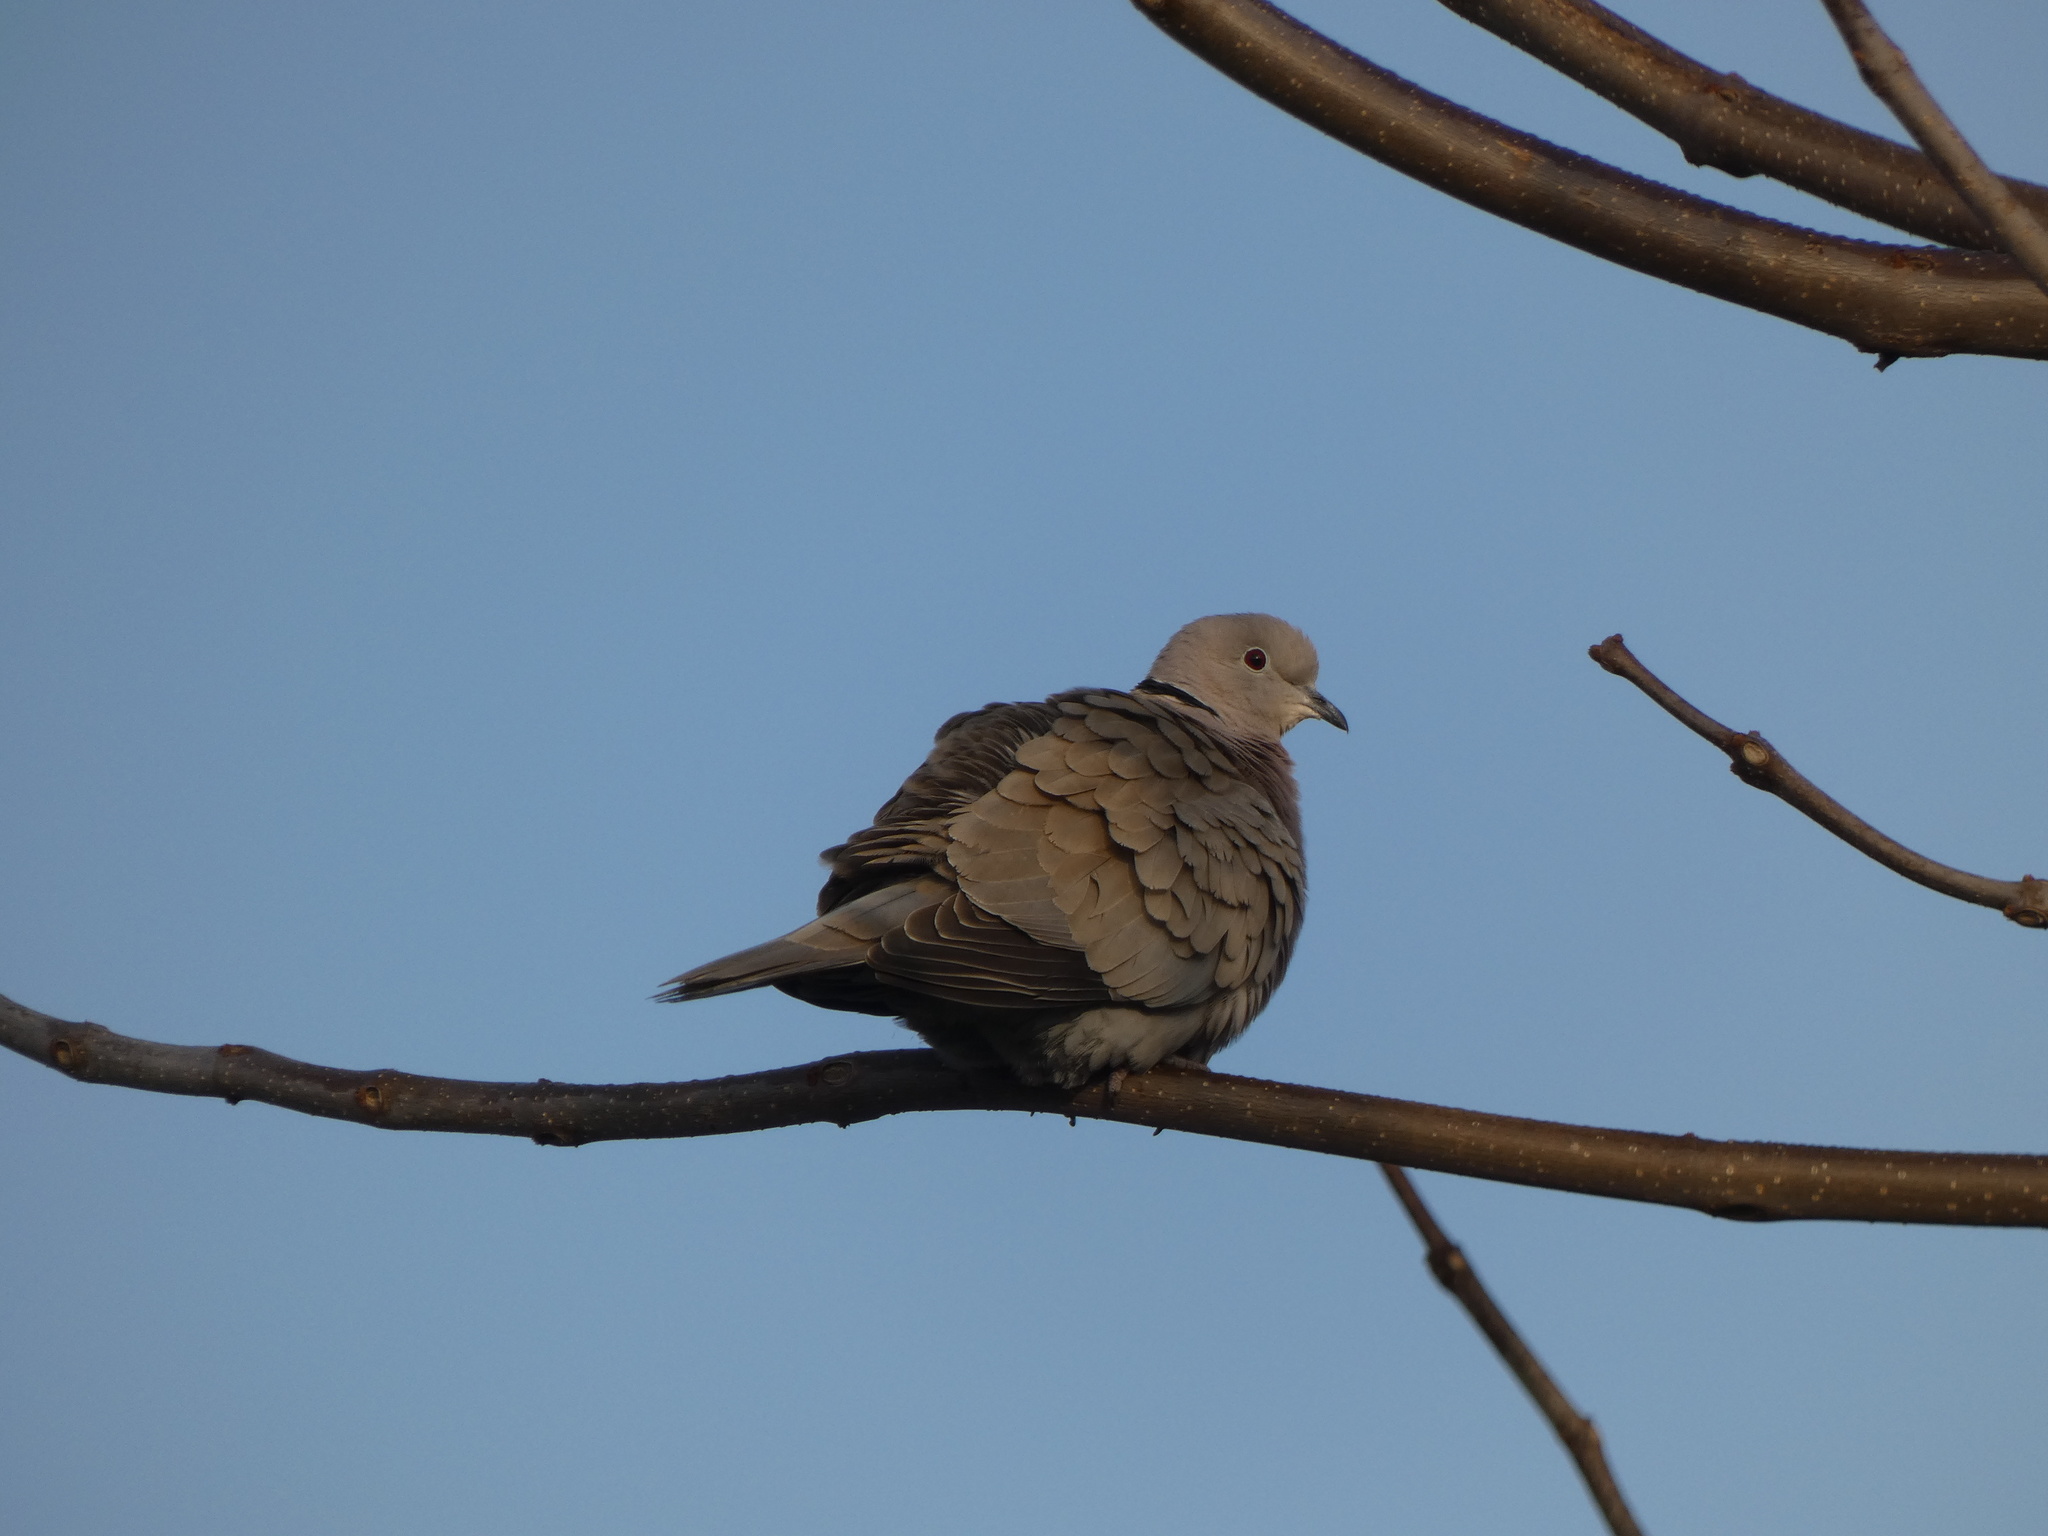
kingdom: Animalia
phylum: Chordata
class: Aves
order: Columbiformes
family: Columbidae
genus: Streptopelia
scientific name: Streptopelia decaocto
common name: Eurasian collared dove
